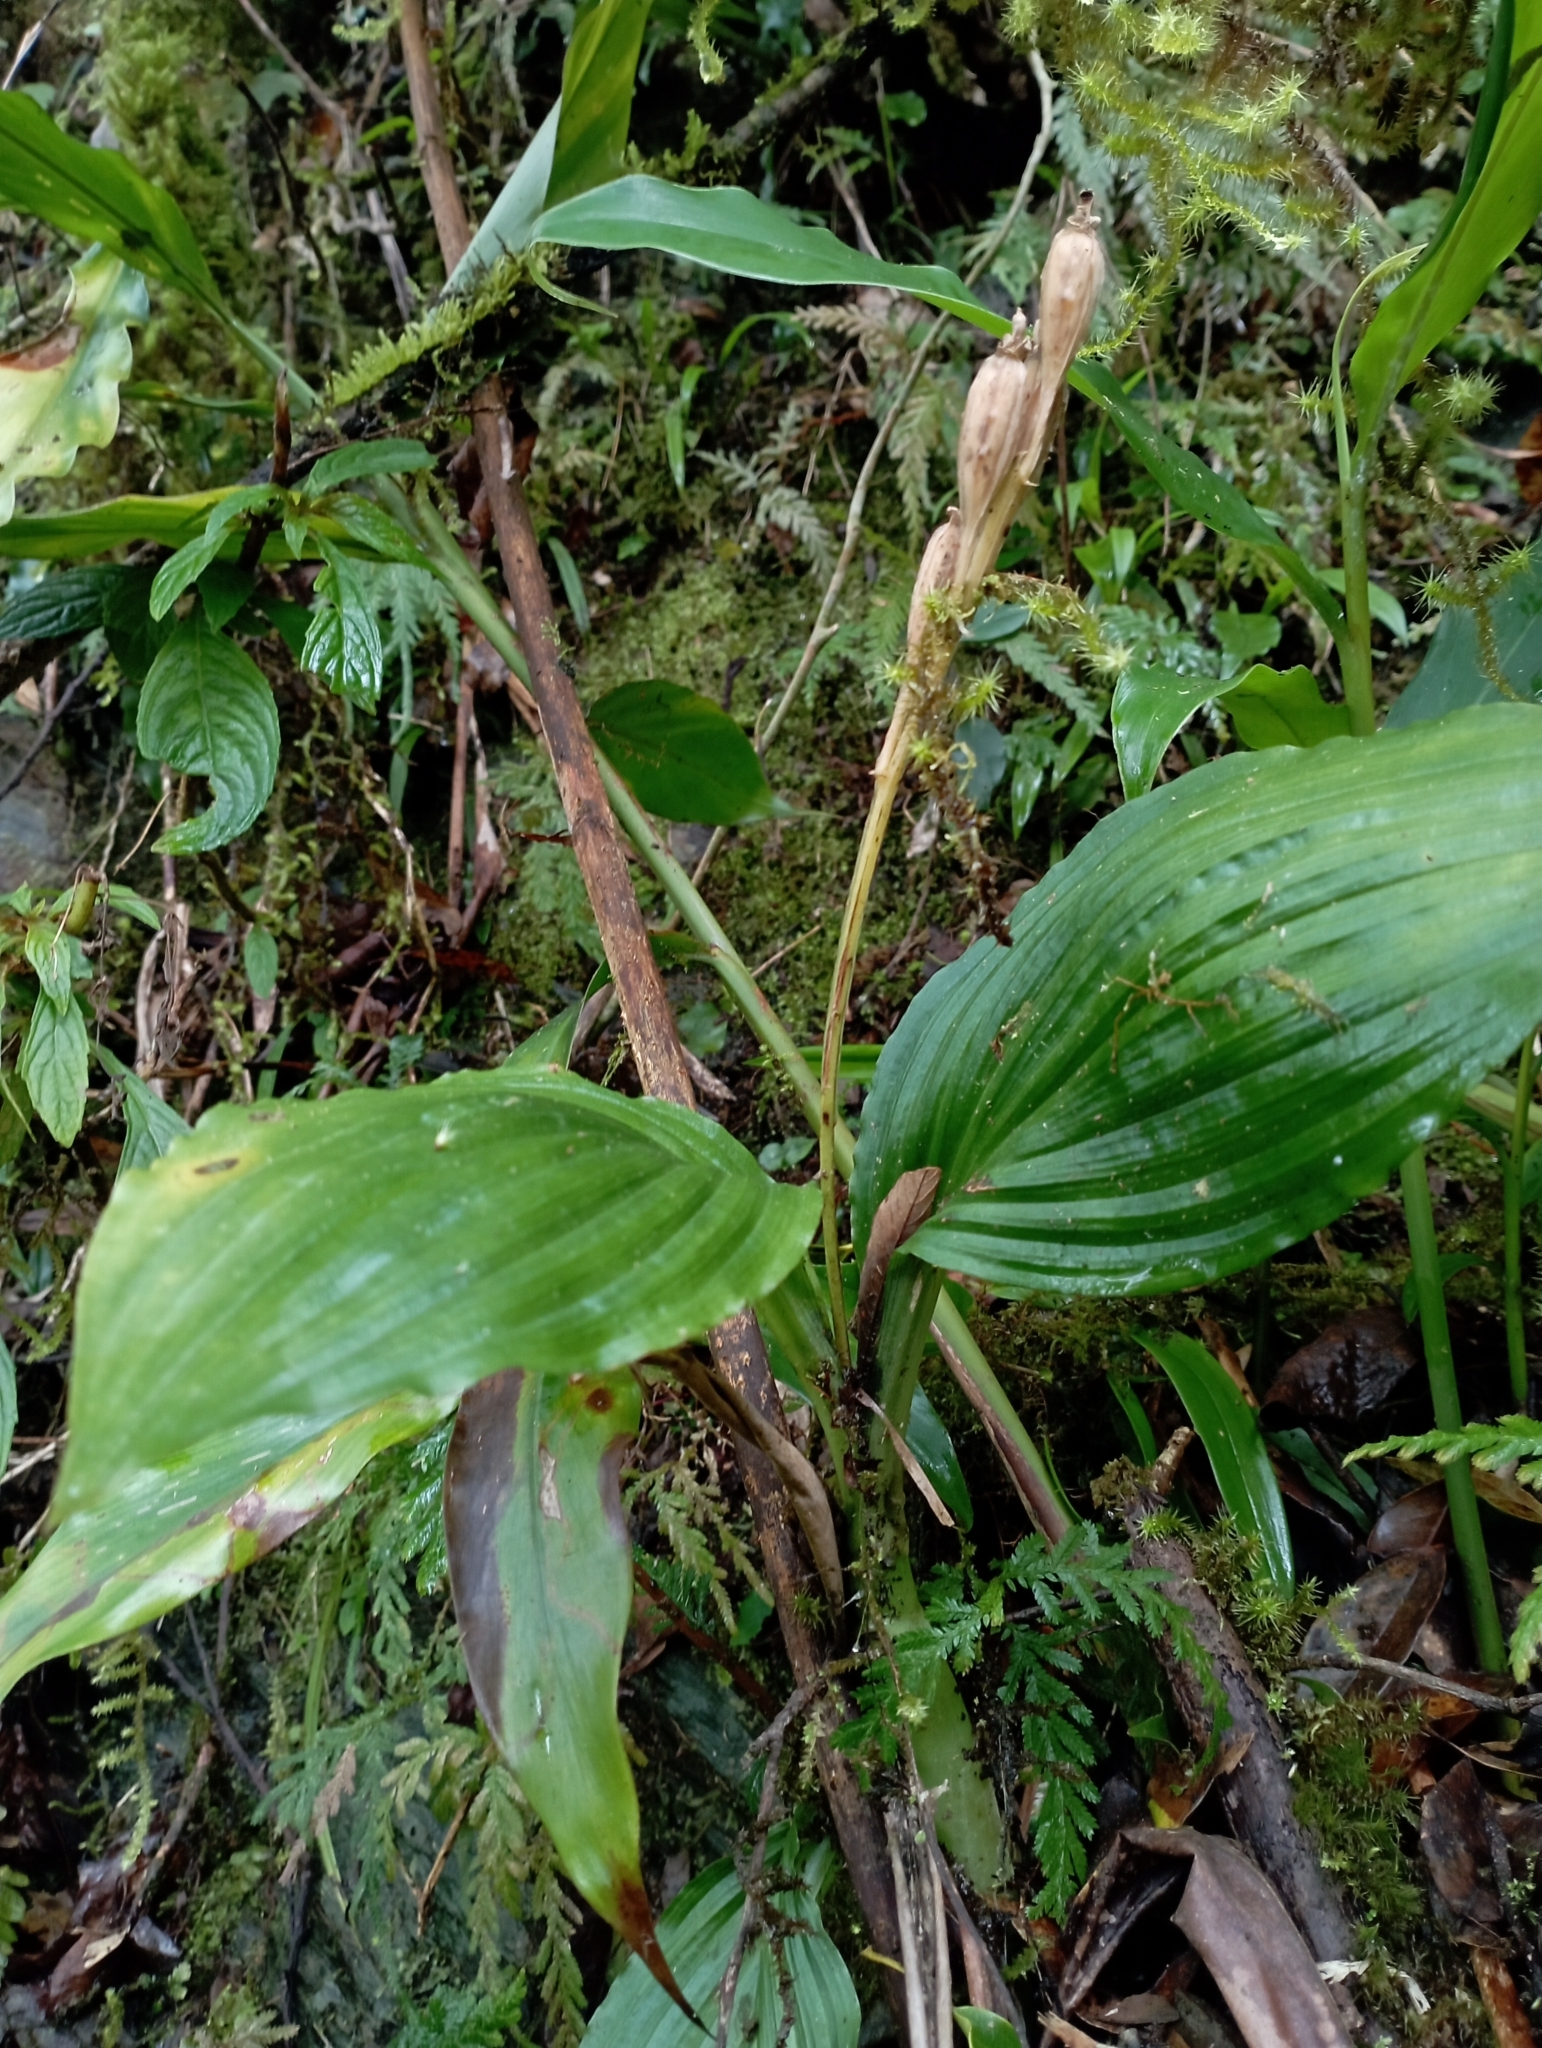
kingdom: Plantae
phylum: Tracheophyta
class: Liliopsida
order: Asparagales
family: Orchidaceae
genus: Liparis
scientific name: Liparis sootenzanensis
